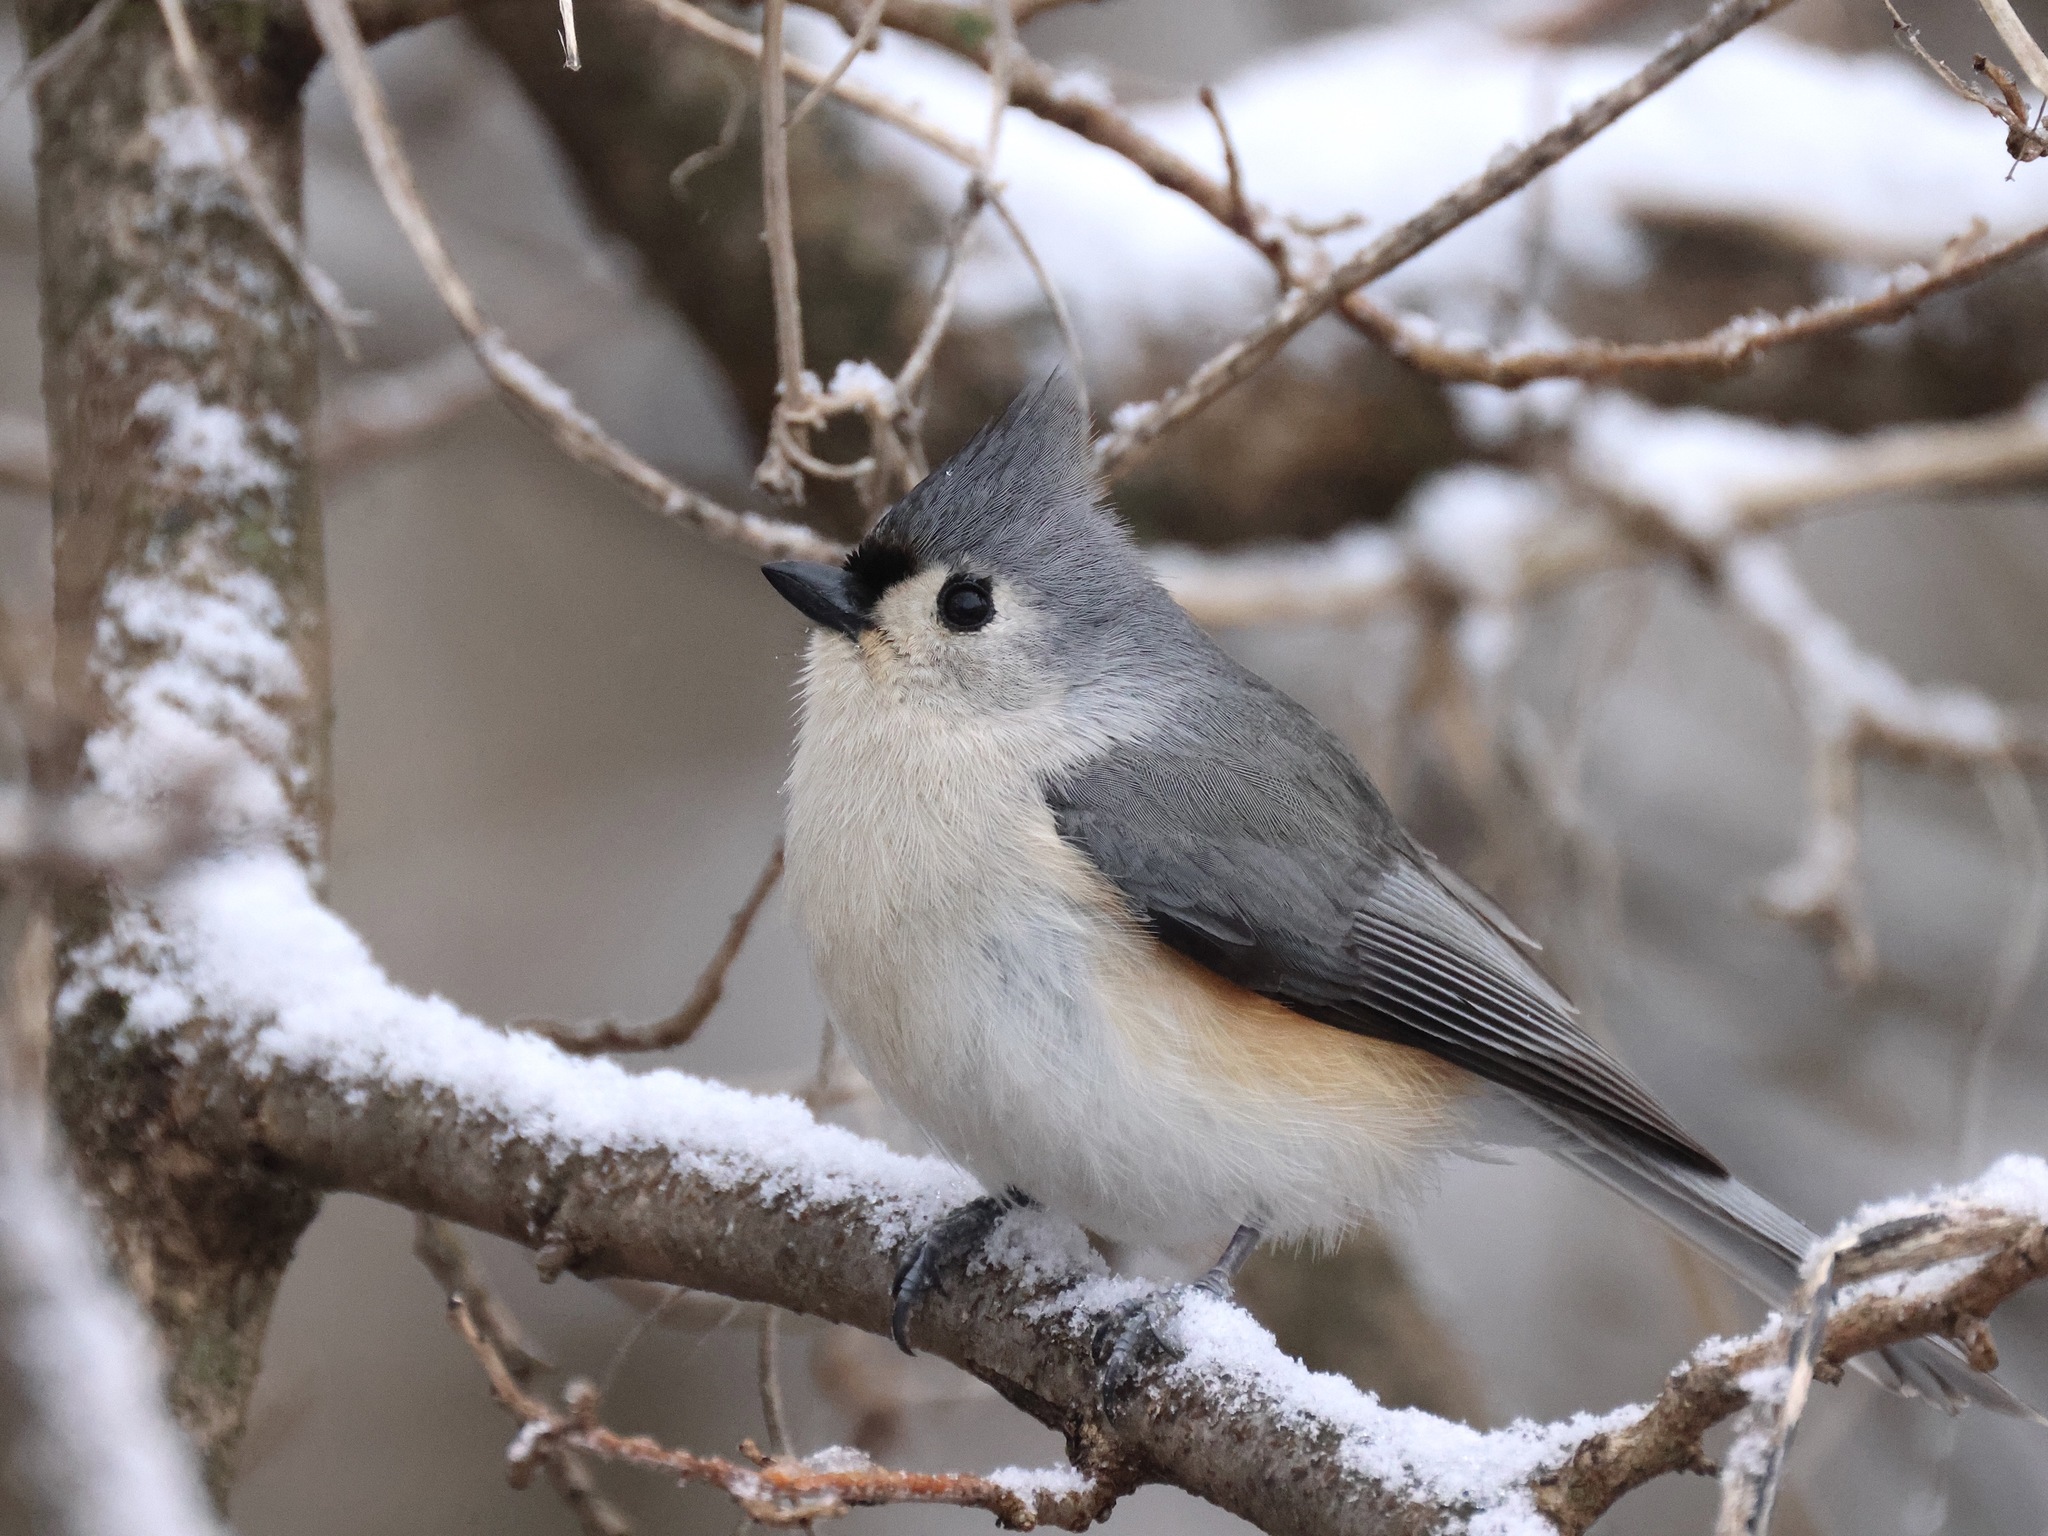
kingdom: Animalia
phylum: Chordata
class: Aves
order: Passeriformes
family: Paridae
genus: Baeolophus
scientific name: Baeolophus bicolor
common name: Tufted titmouse
